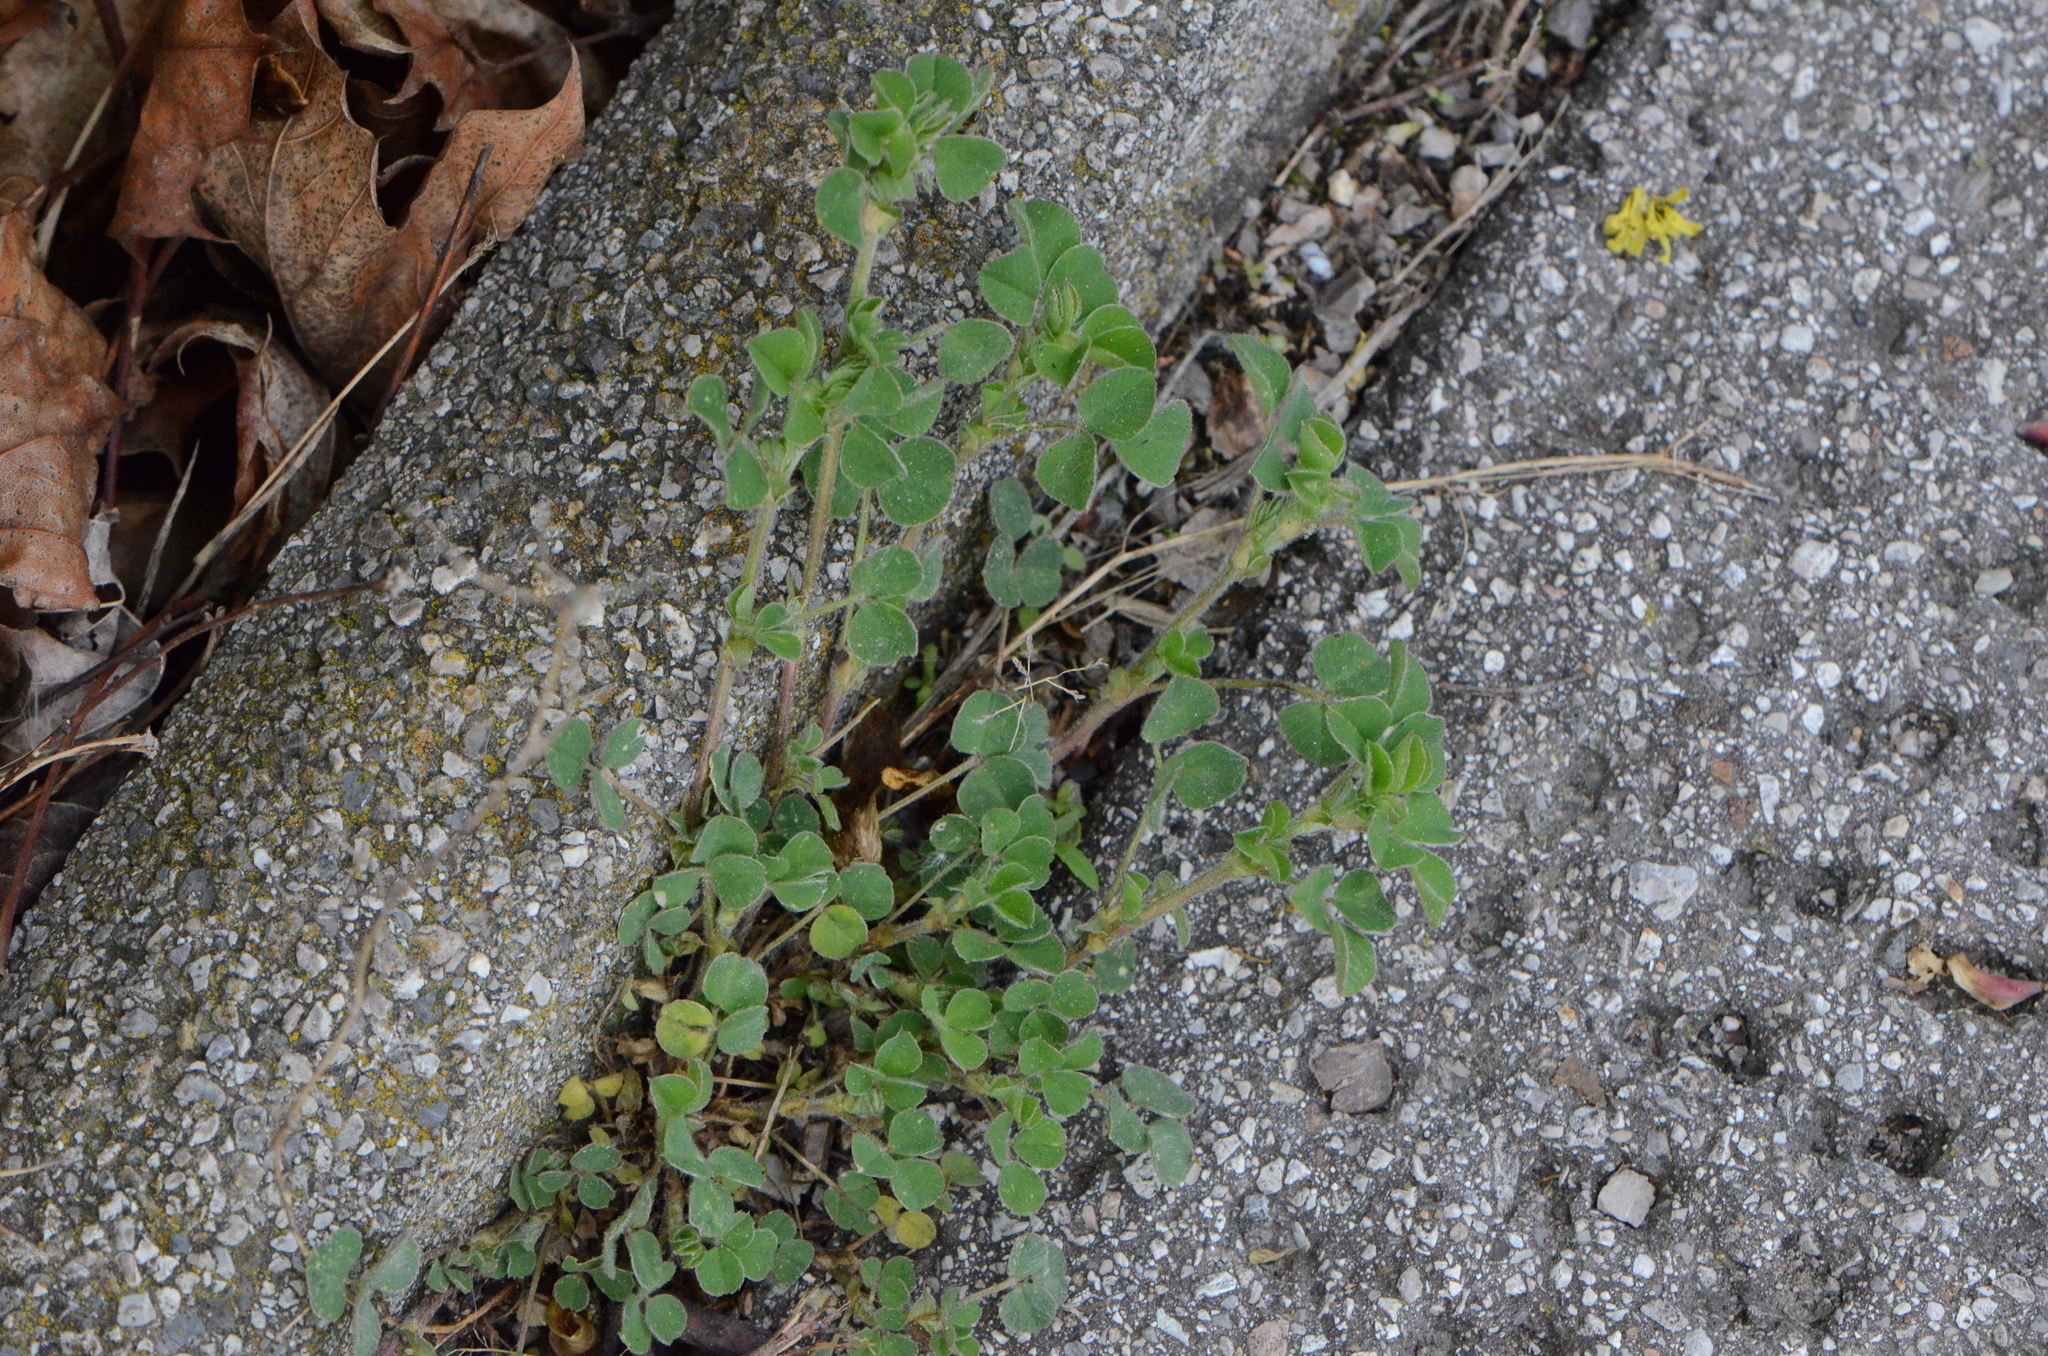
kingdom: Plantae
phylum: Tracheophyta
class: Magnoliopsida
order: Fabales
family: Fabaceae
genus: Medicago
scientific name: Medicago lupulina
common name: Black medick
